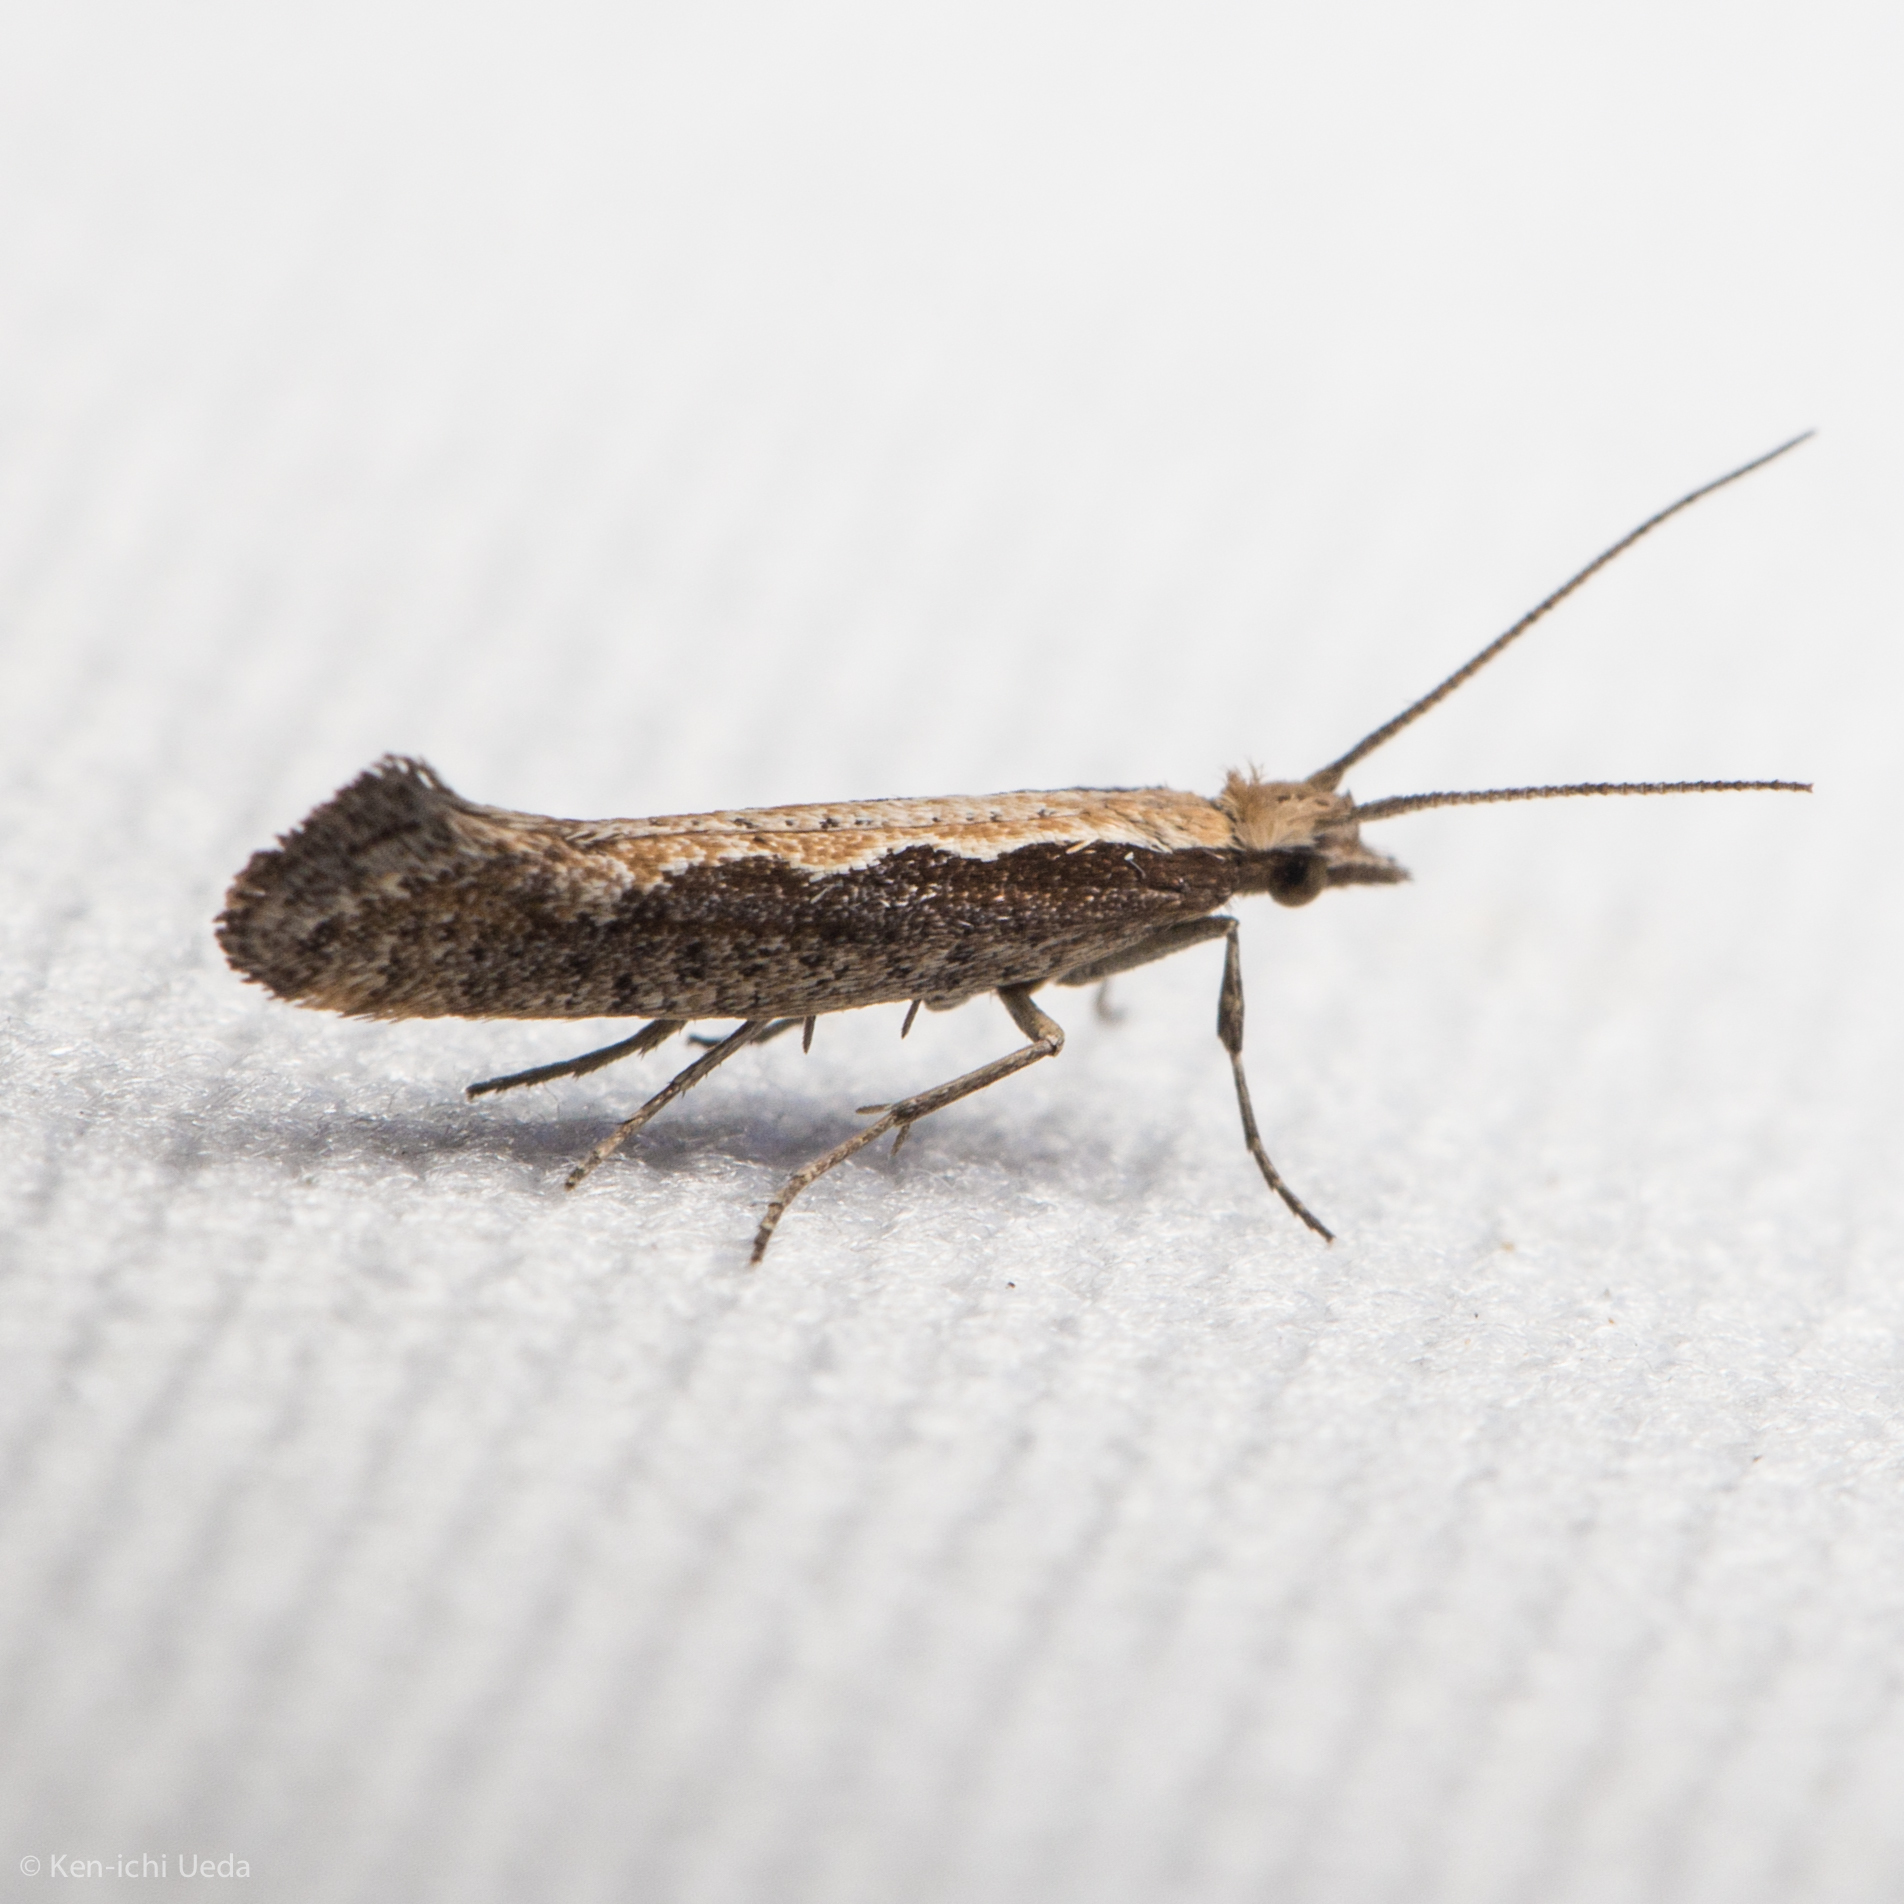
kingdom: Animalia
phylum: Arthropoda
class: Insecta
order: Lepidoptera
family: Plutellidae
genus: Plutella
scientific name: Plutella xylostella
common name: Diamond-back moth
